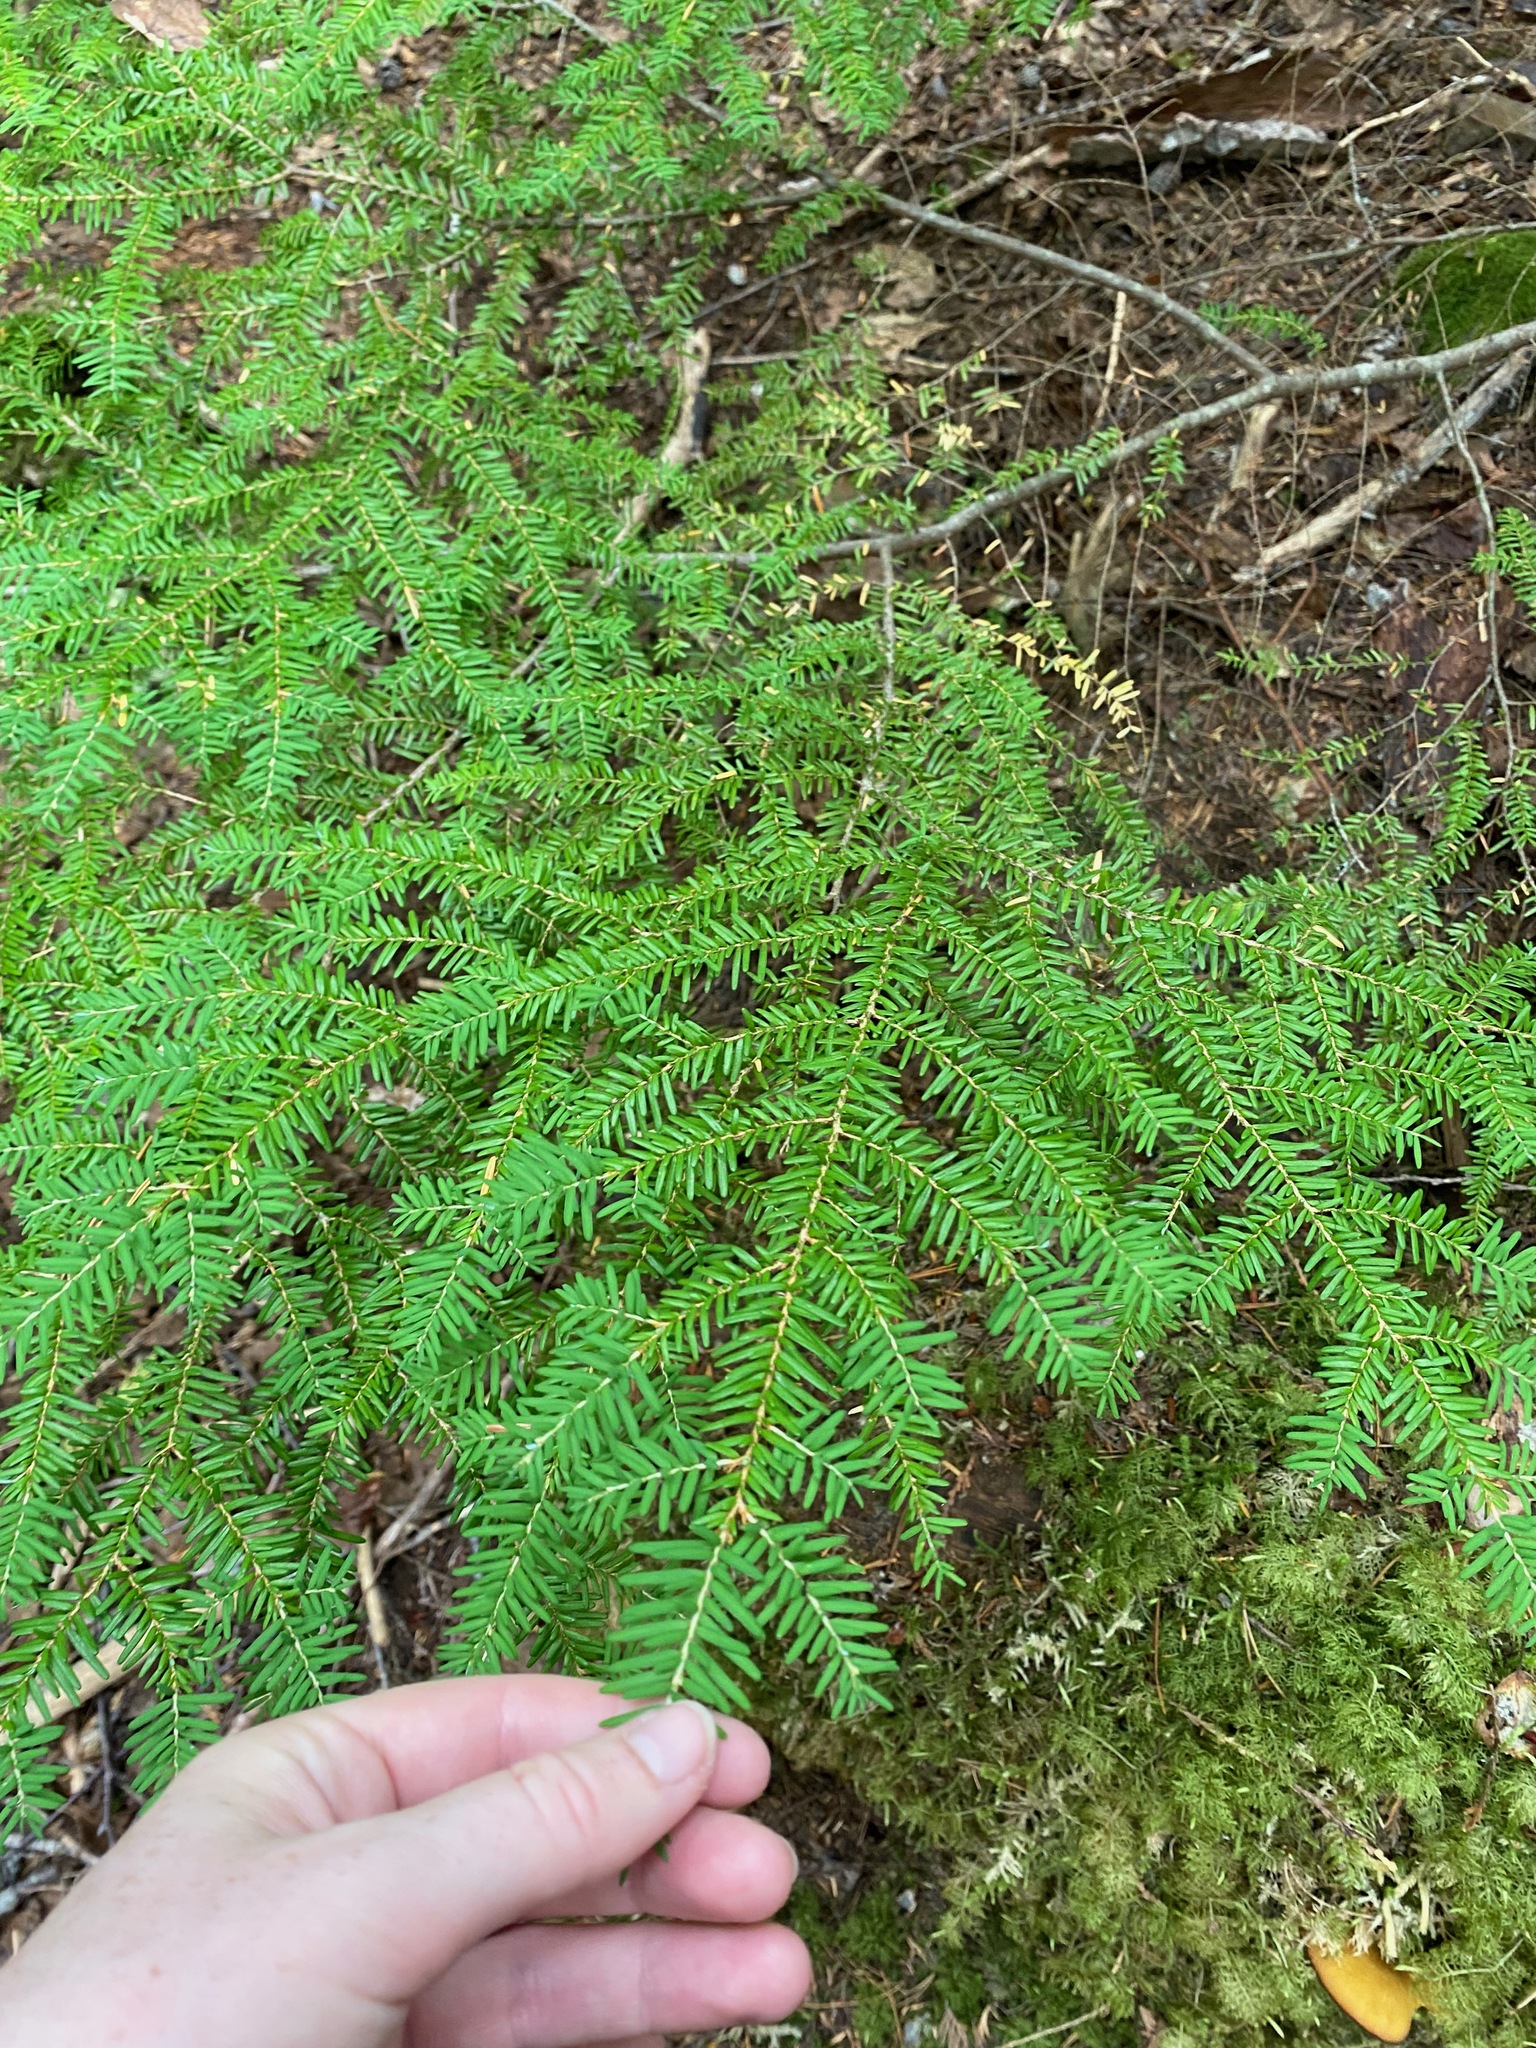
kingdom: Plantae
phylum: Tracheophyta
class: Pinopsida
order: Pinales
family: Pinaceae
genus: Tsuga
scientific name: Tsuga heterophylla
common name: Western hemlock
